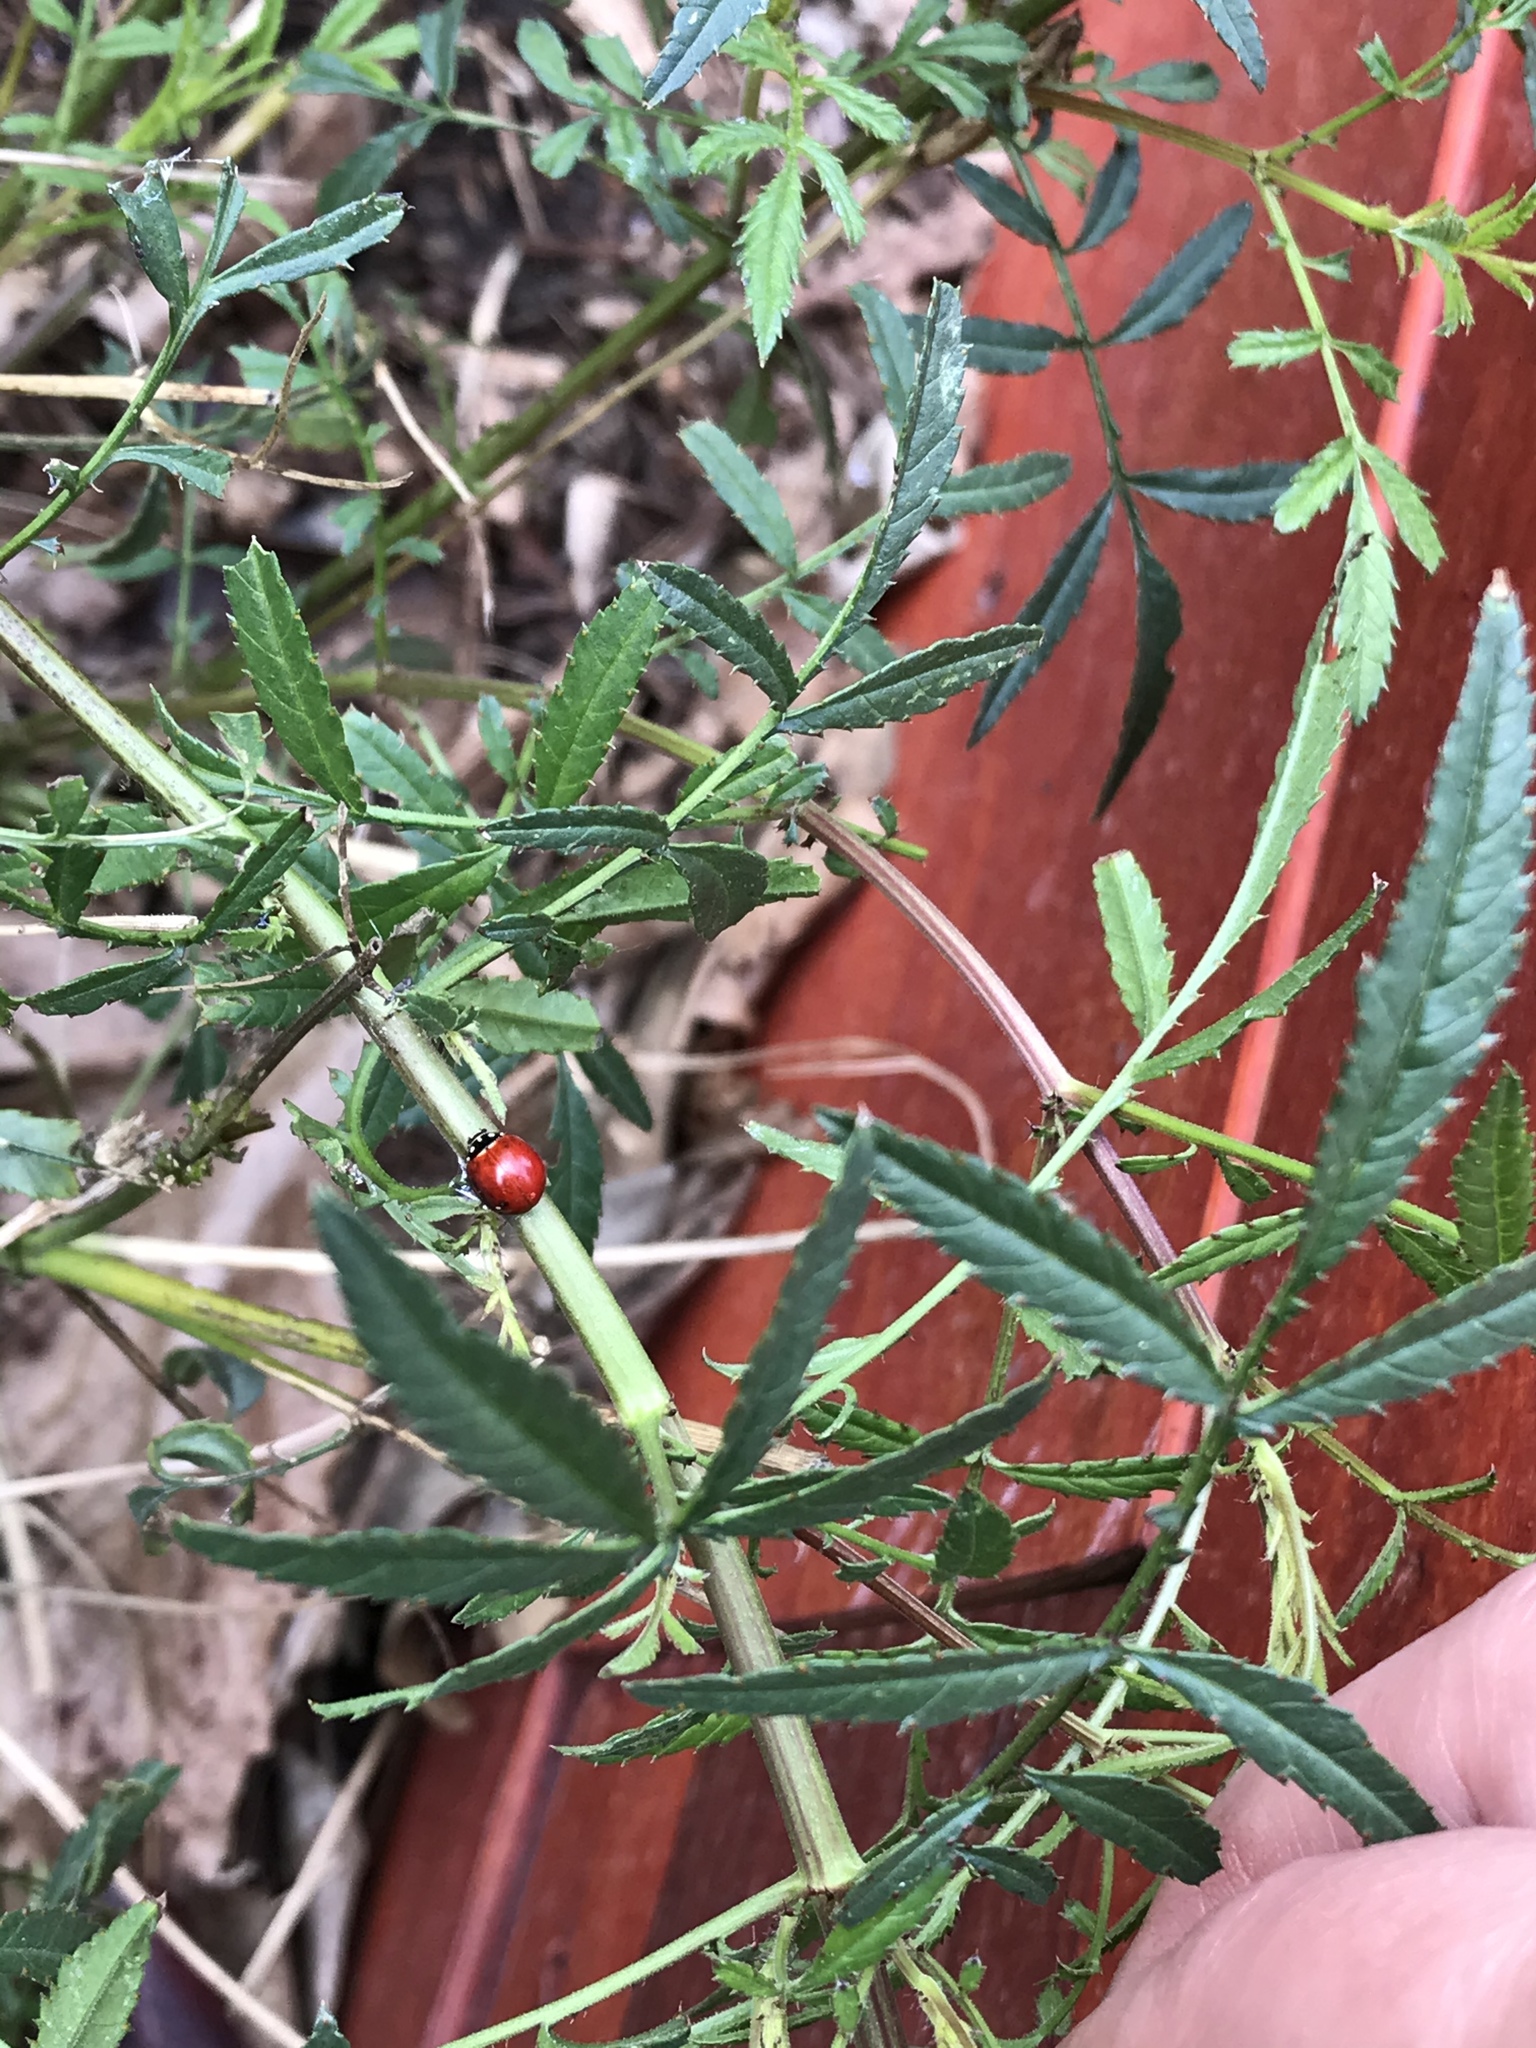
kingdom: Animalia
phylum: Arthropoda
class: Insecta
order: Coleoptera
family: Coccinellidae
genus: Cycloneda
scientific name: Cycloneda sanguinea
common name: Ladybird beetle
